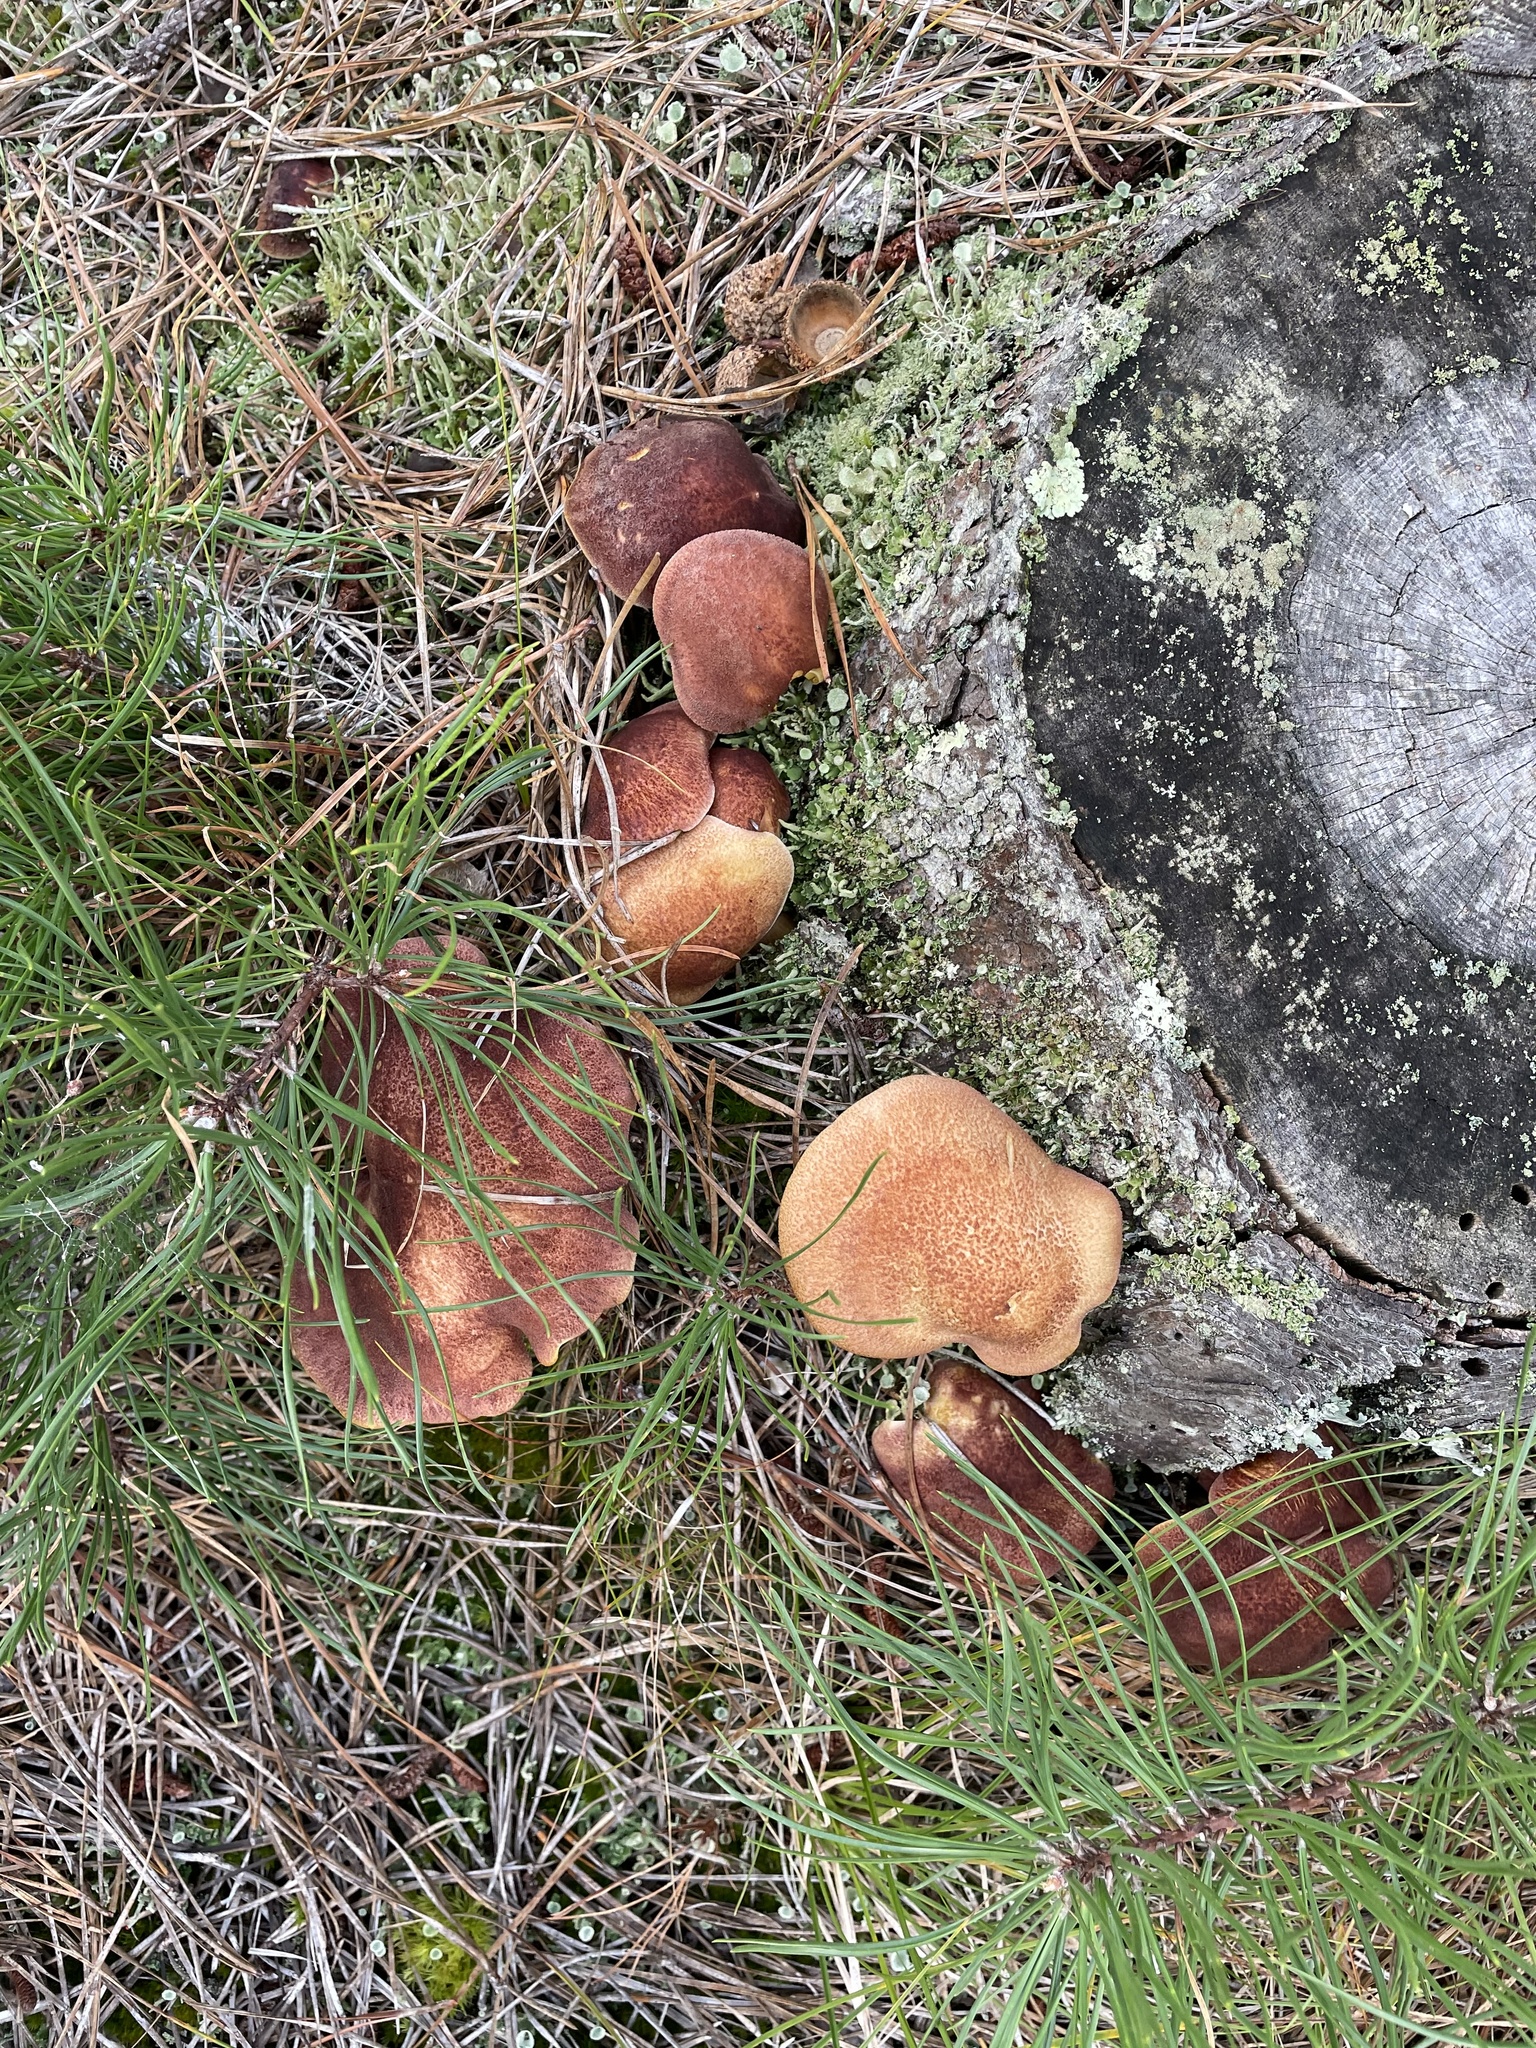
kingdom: Fungi
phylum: Basidiomycota
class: Agaricomycetes
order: Agaricales
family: Tricholomataceae
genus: Tricholomopsis
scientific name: Tricholomopsis rutilans
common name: Plums and custard
